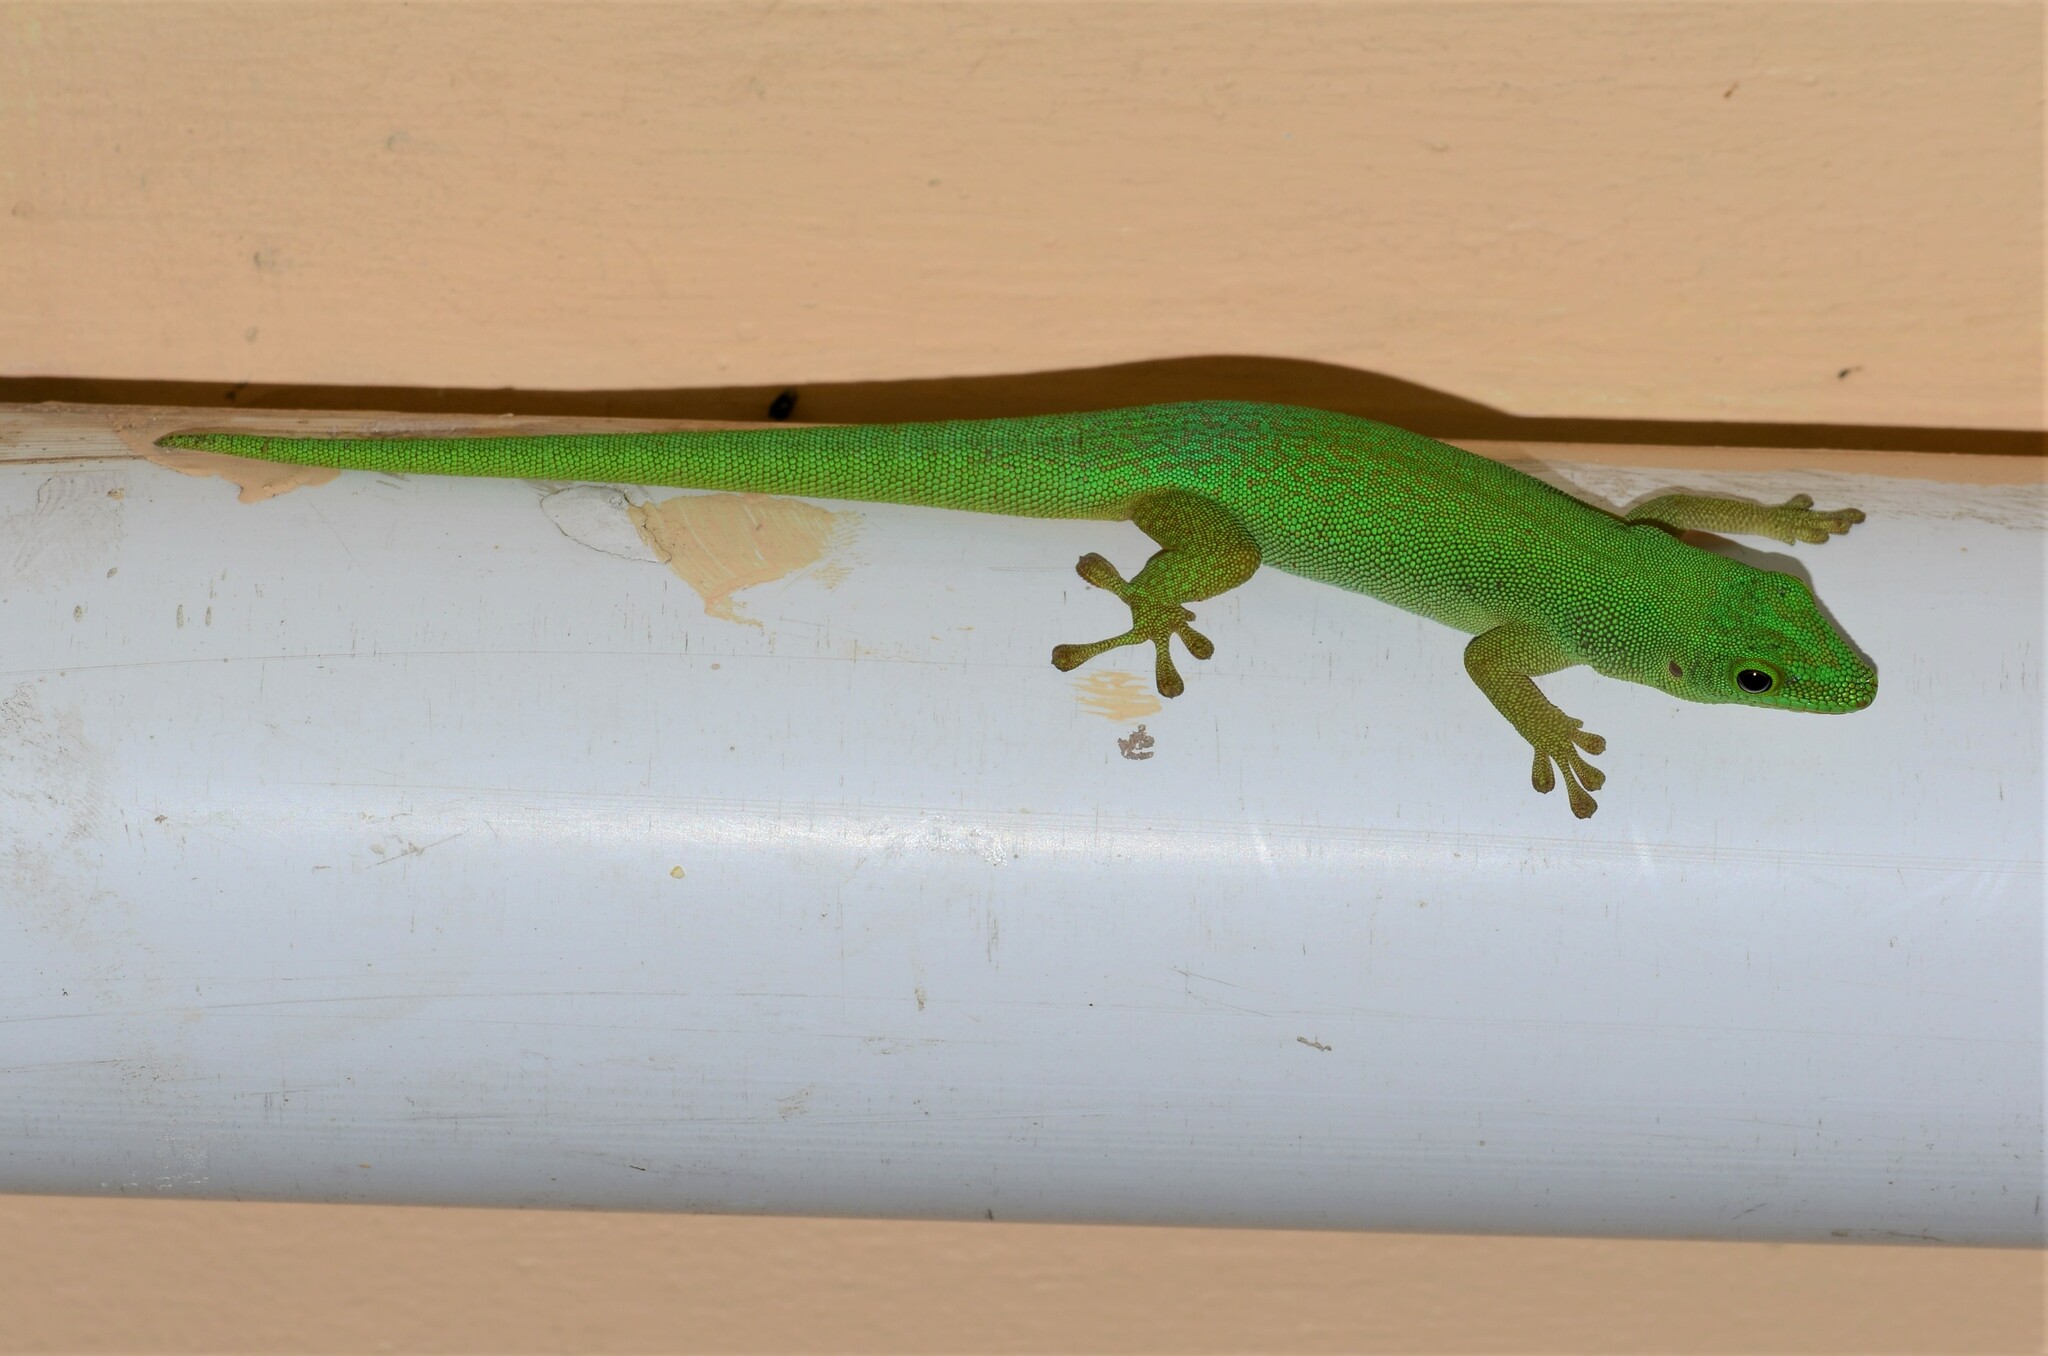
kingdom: Animalia
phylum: Chordata
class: Squamata
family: Gekkonidae
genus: Phelsuma
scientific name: Phelsuma sundbergi
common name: Seychelles giant day gecko
